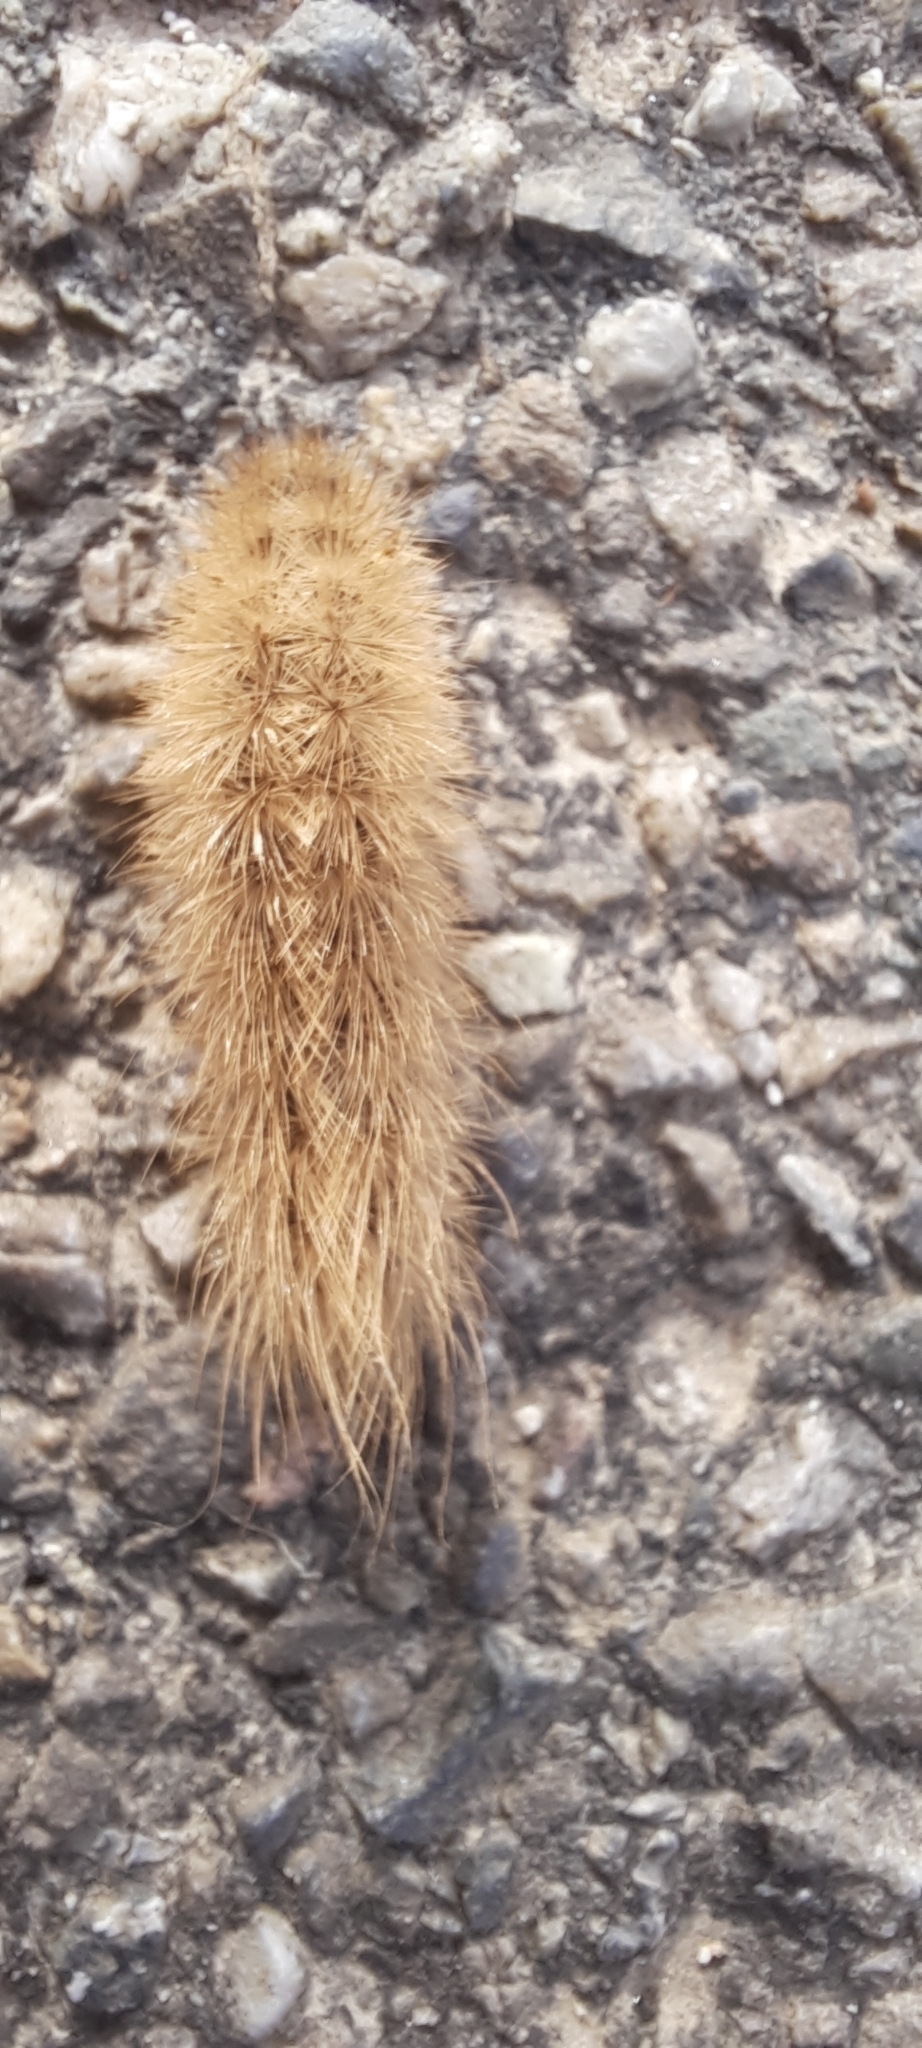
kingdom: Animalia
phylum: Arthropoda
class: Insecta
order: Lepidoptera
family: Erebidae
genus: Phragmatobia
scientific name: Phragmatobia fuliginosa
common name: Ruby tiger
